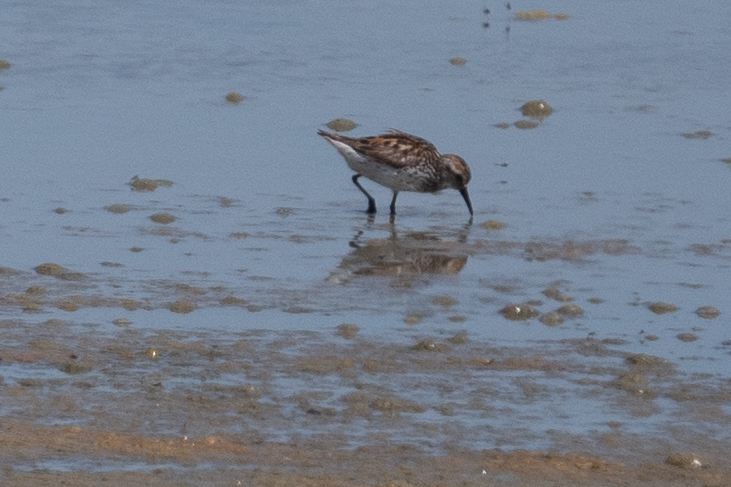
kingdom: Animalia
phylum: Chordata
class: Aves
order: Charadriiformes
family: Scolopacidae
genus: Calidris
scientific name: Calidris mauri
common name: Western sandpiper
